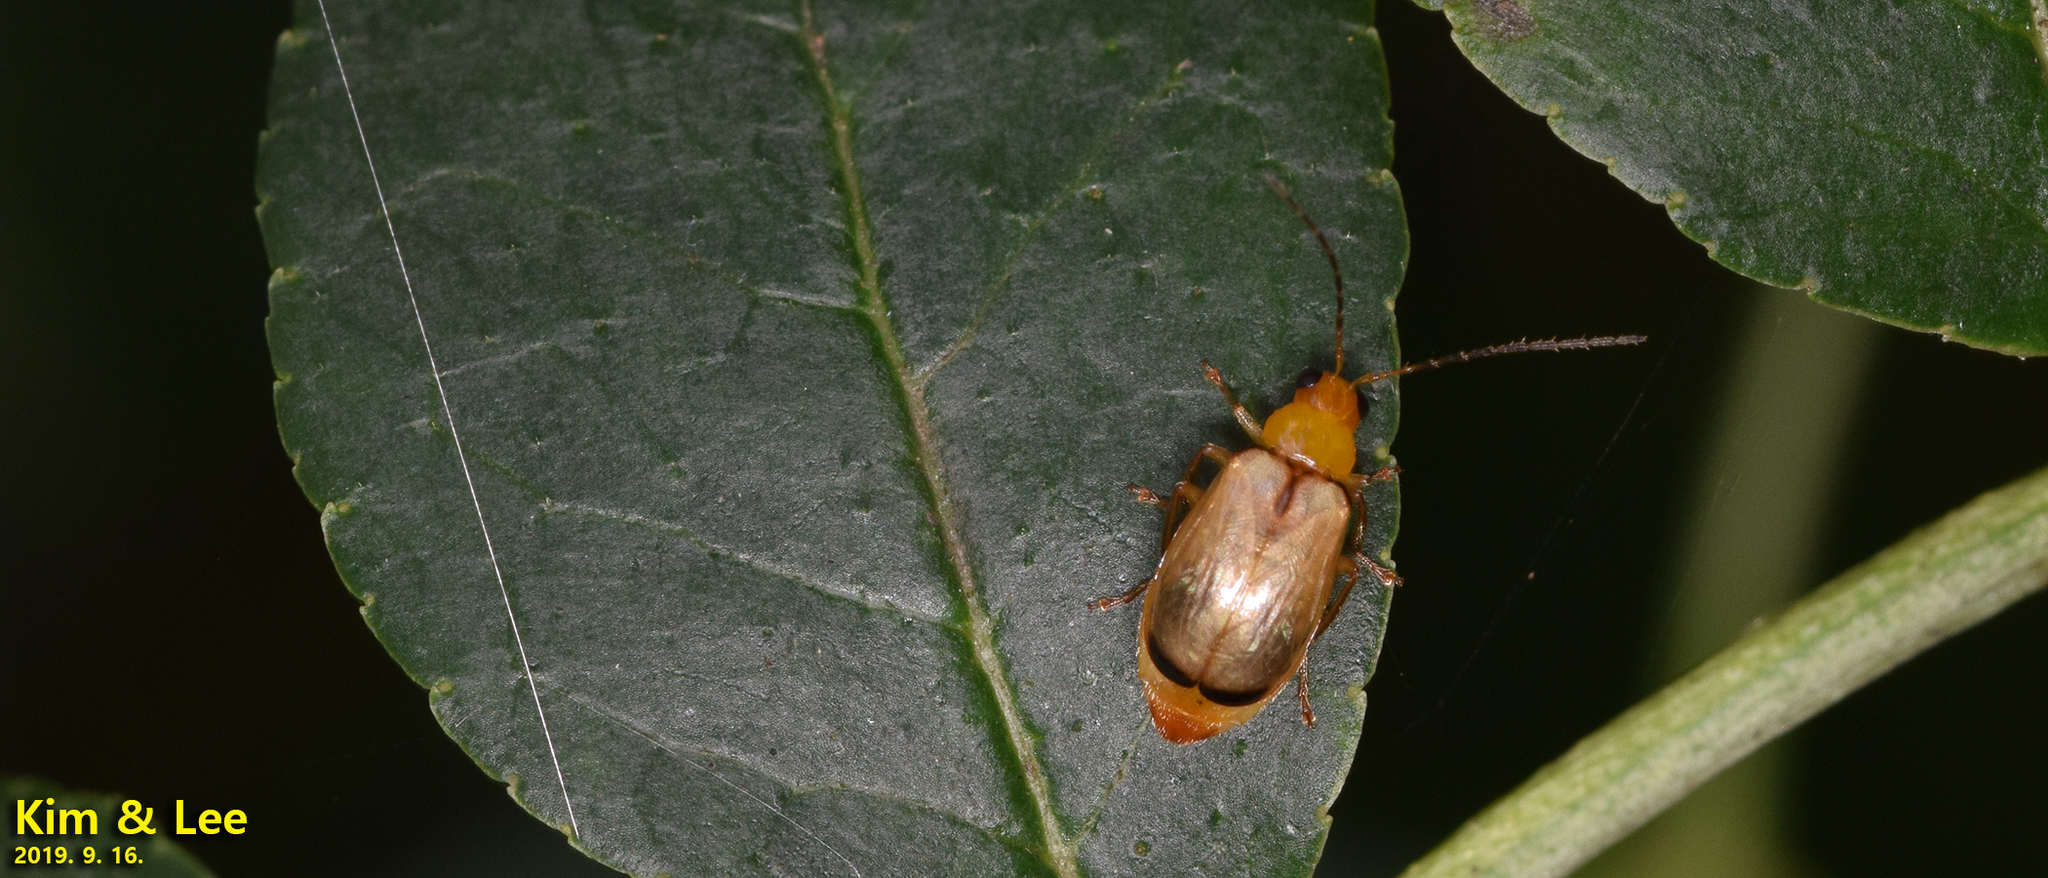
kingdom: Animalia
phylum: Arthropoda
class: Insecta
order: Coleoptera
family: Chrysomelidae
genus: Monolepta
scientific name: Monolepta shirozui
